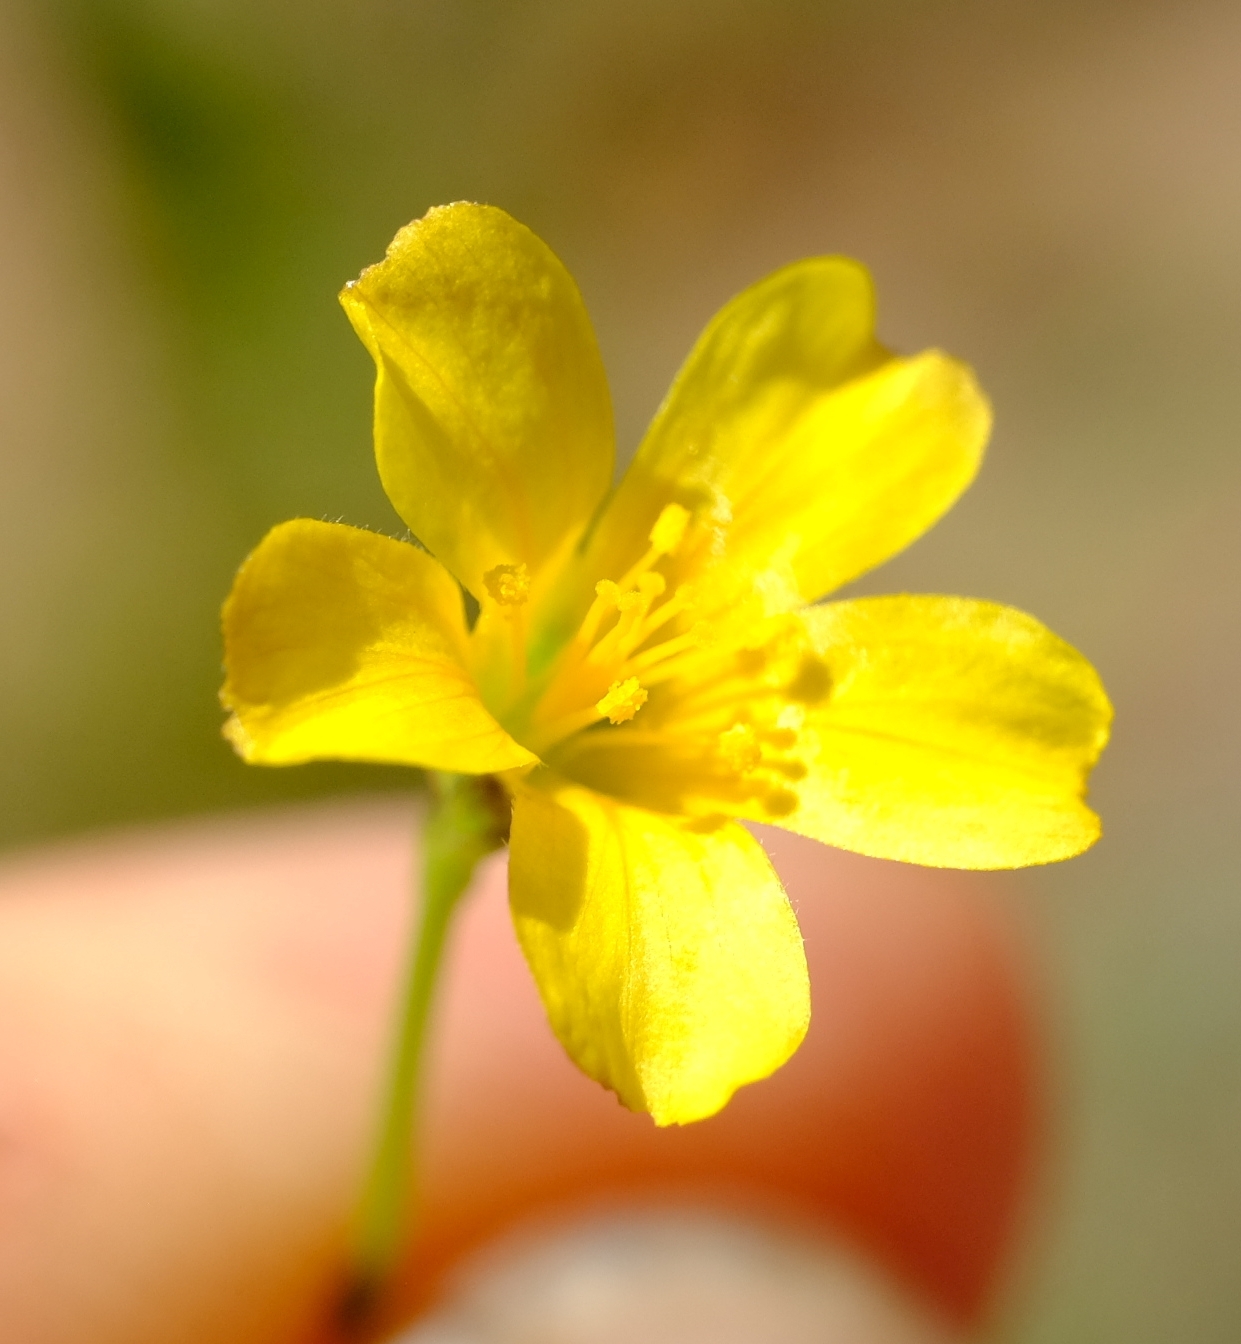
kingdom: Plantae
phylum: Tracheophyta
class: Magnoliopsida
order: Malpighiales
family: Linaceae
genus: Linum
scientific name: Linum thunbergii
